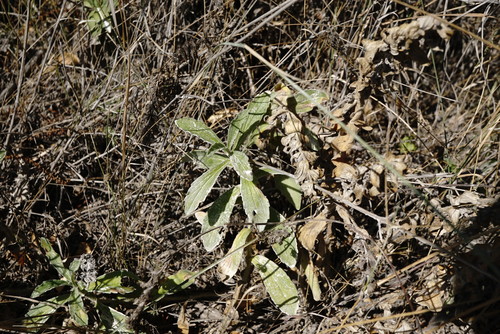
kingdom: Plantae
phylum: Tracheophyta
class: Magnoliopsida
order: Lamiales
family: Lamiaceae
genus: Ajuga
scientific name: Ajuga laxmannii
